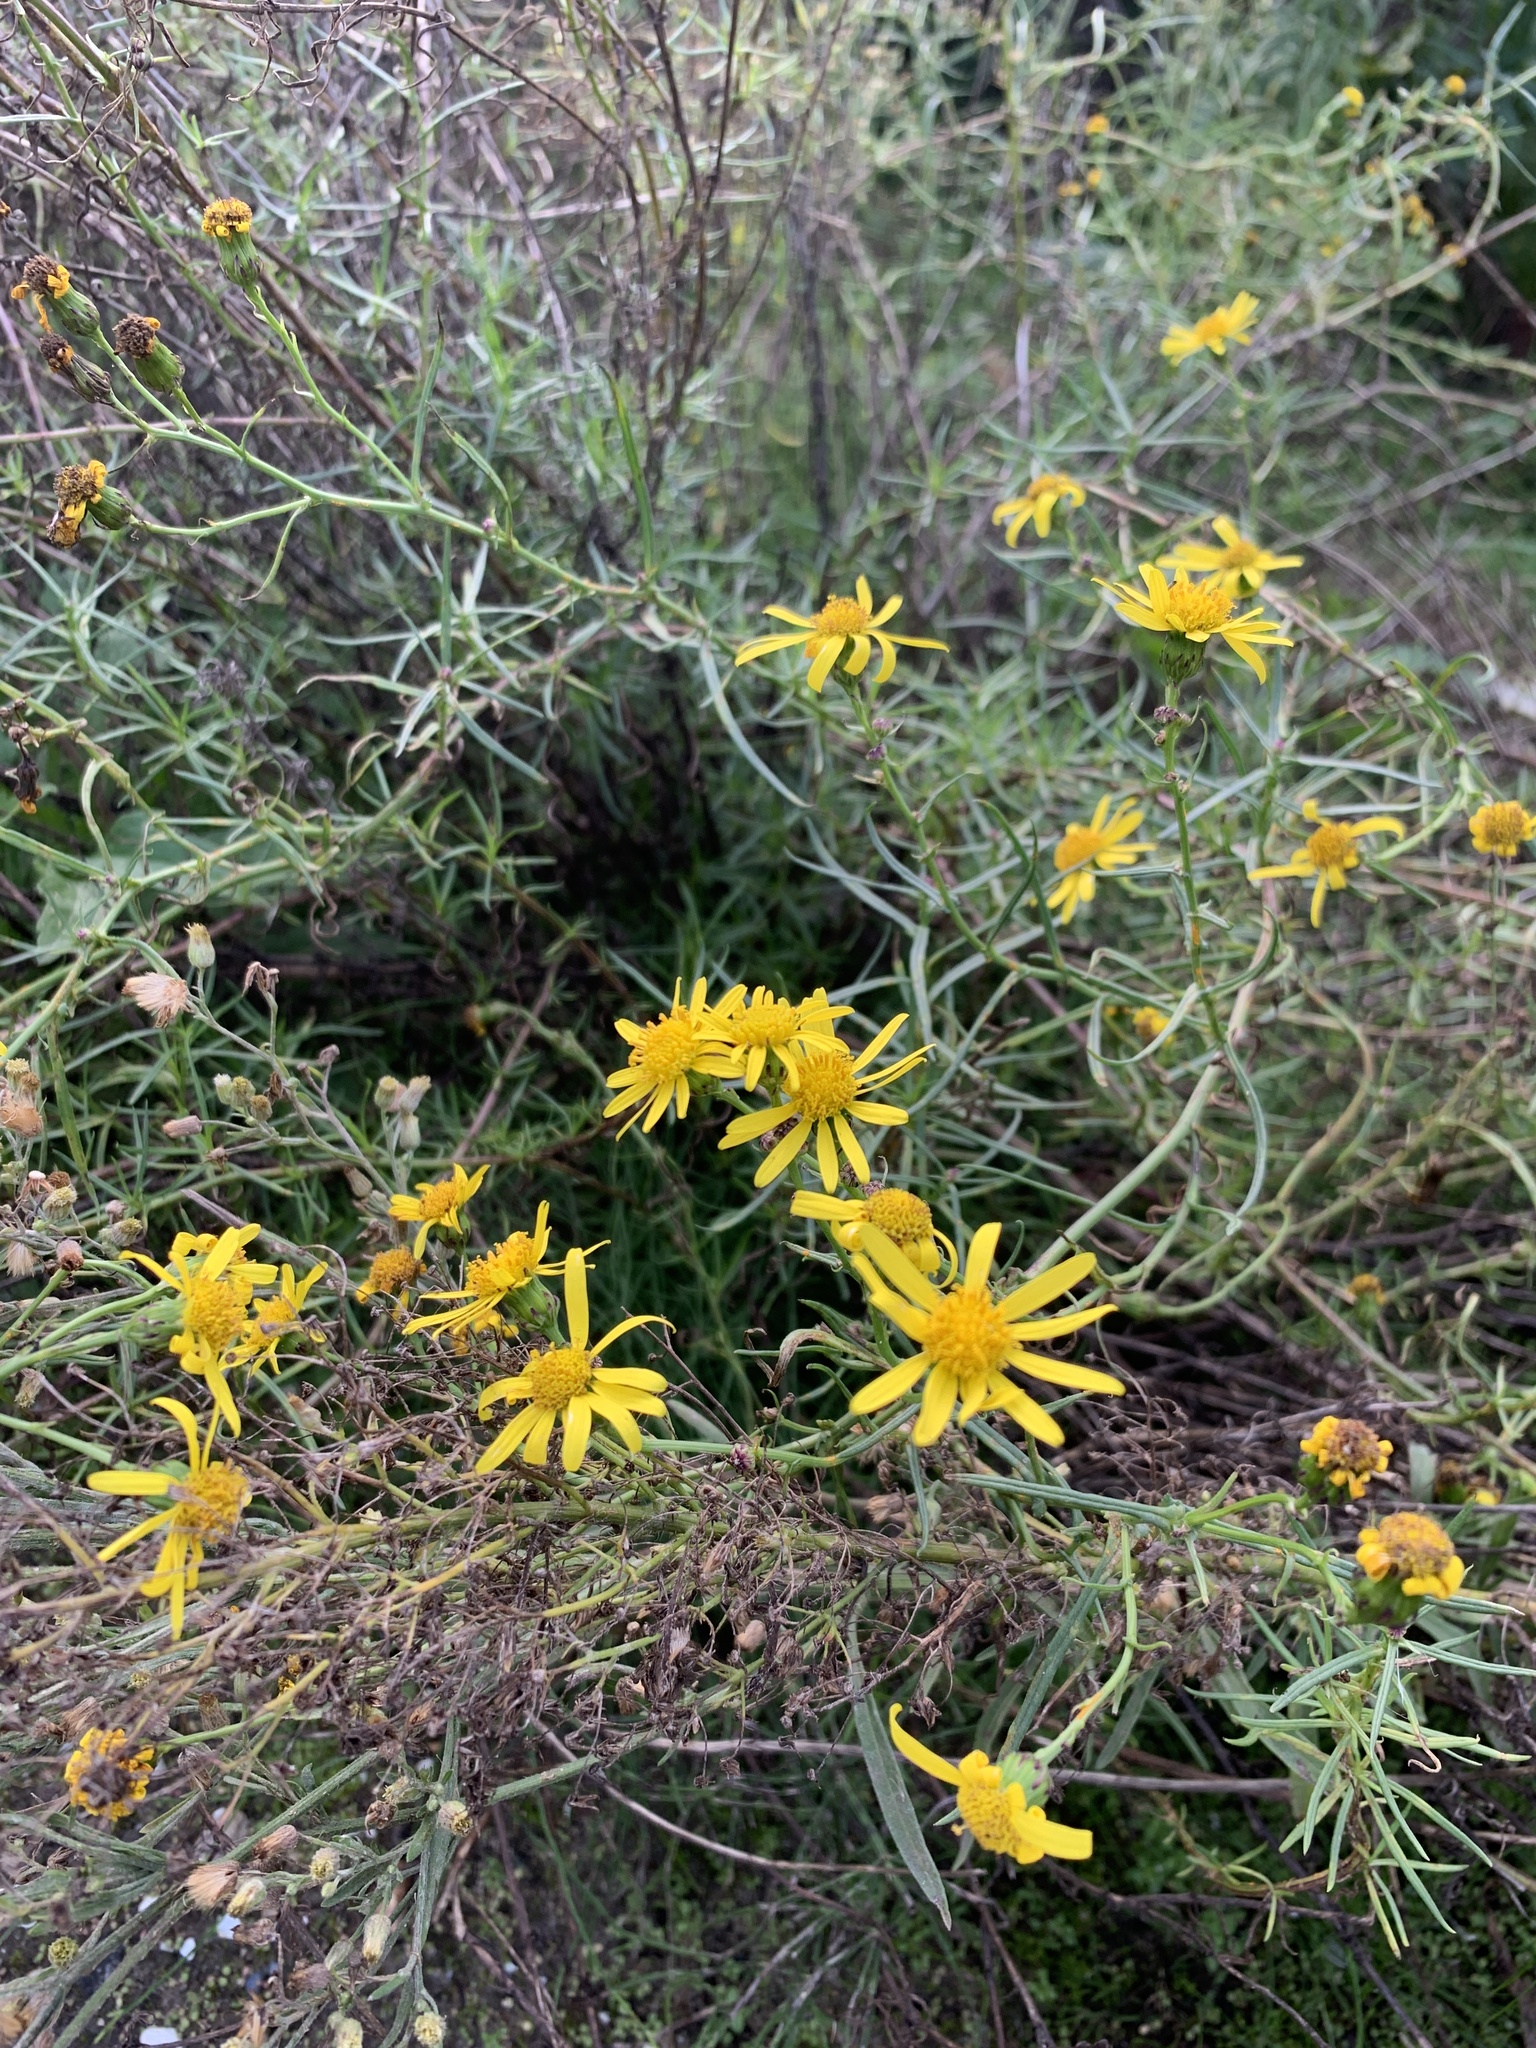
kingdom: Plantae
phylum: Tracheophyta
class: Magnoliopsida
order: Asterales
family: Asteraceae
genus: Senecio
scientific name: Senecio inaequidens
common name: Narrow-leaved ragwort
